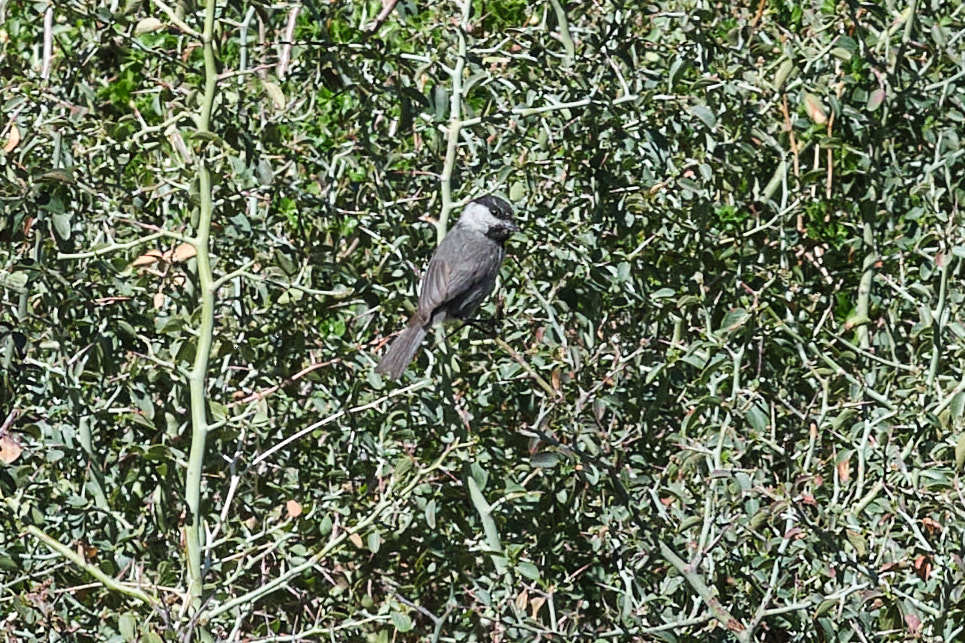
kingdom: Animalia
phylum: Chordata
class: Aves
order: Passeriformes
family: Paridae
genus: Poecile
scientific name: Poecile gambeli
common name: Mountain chickadee
